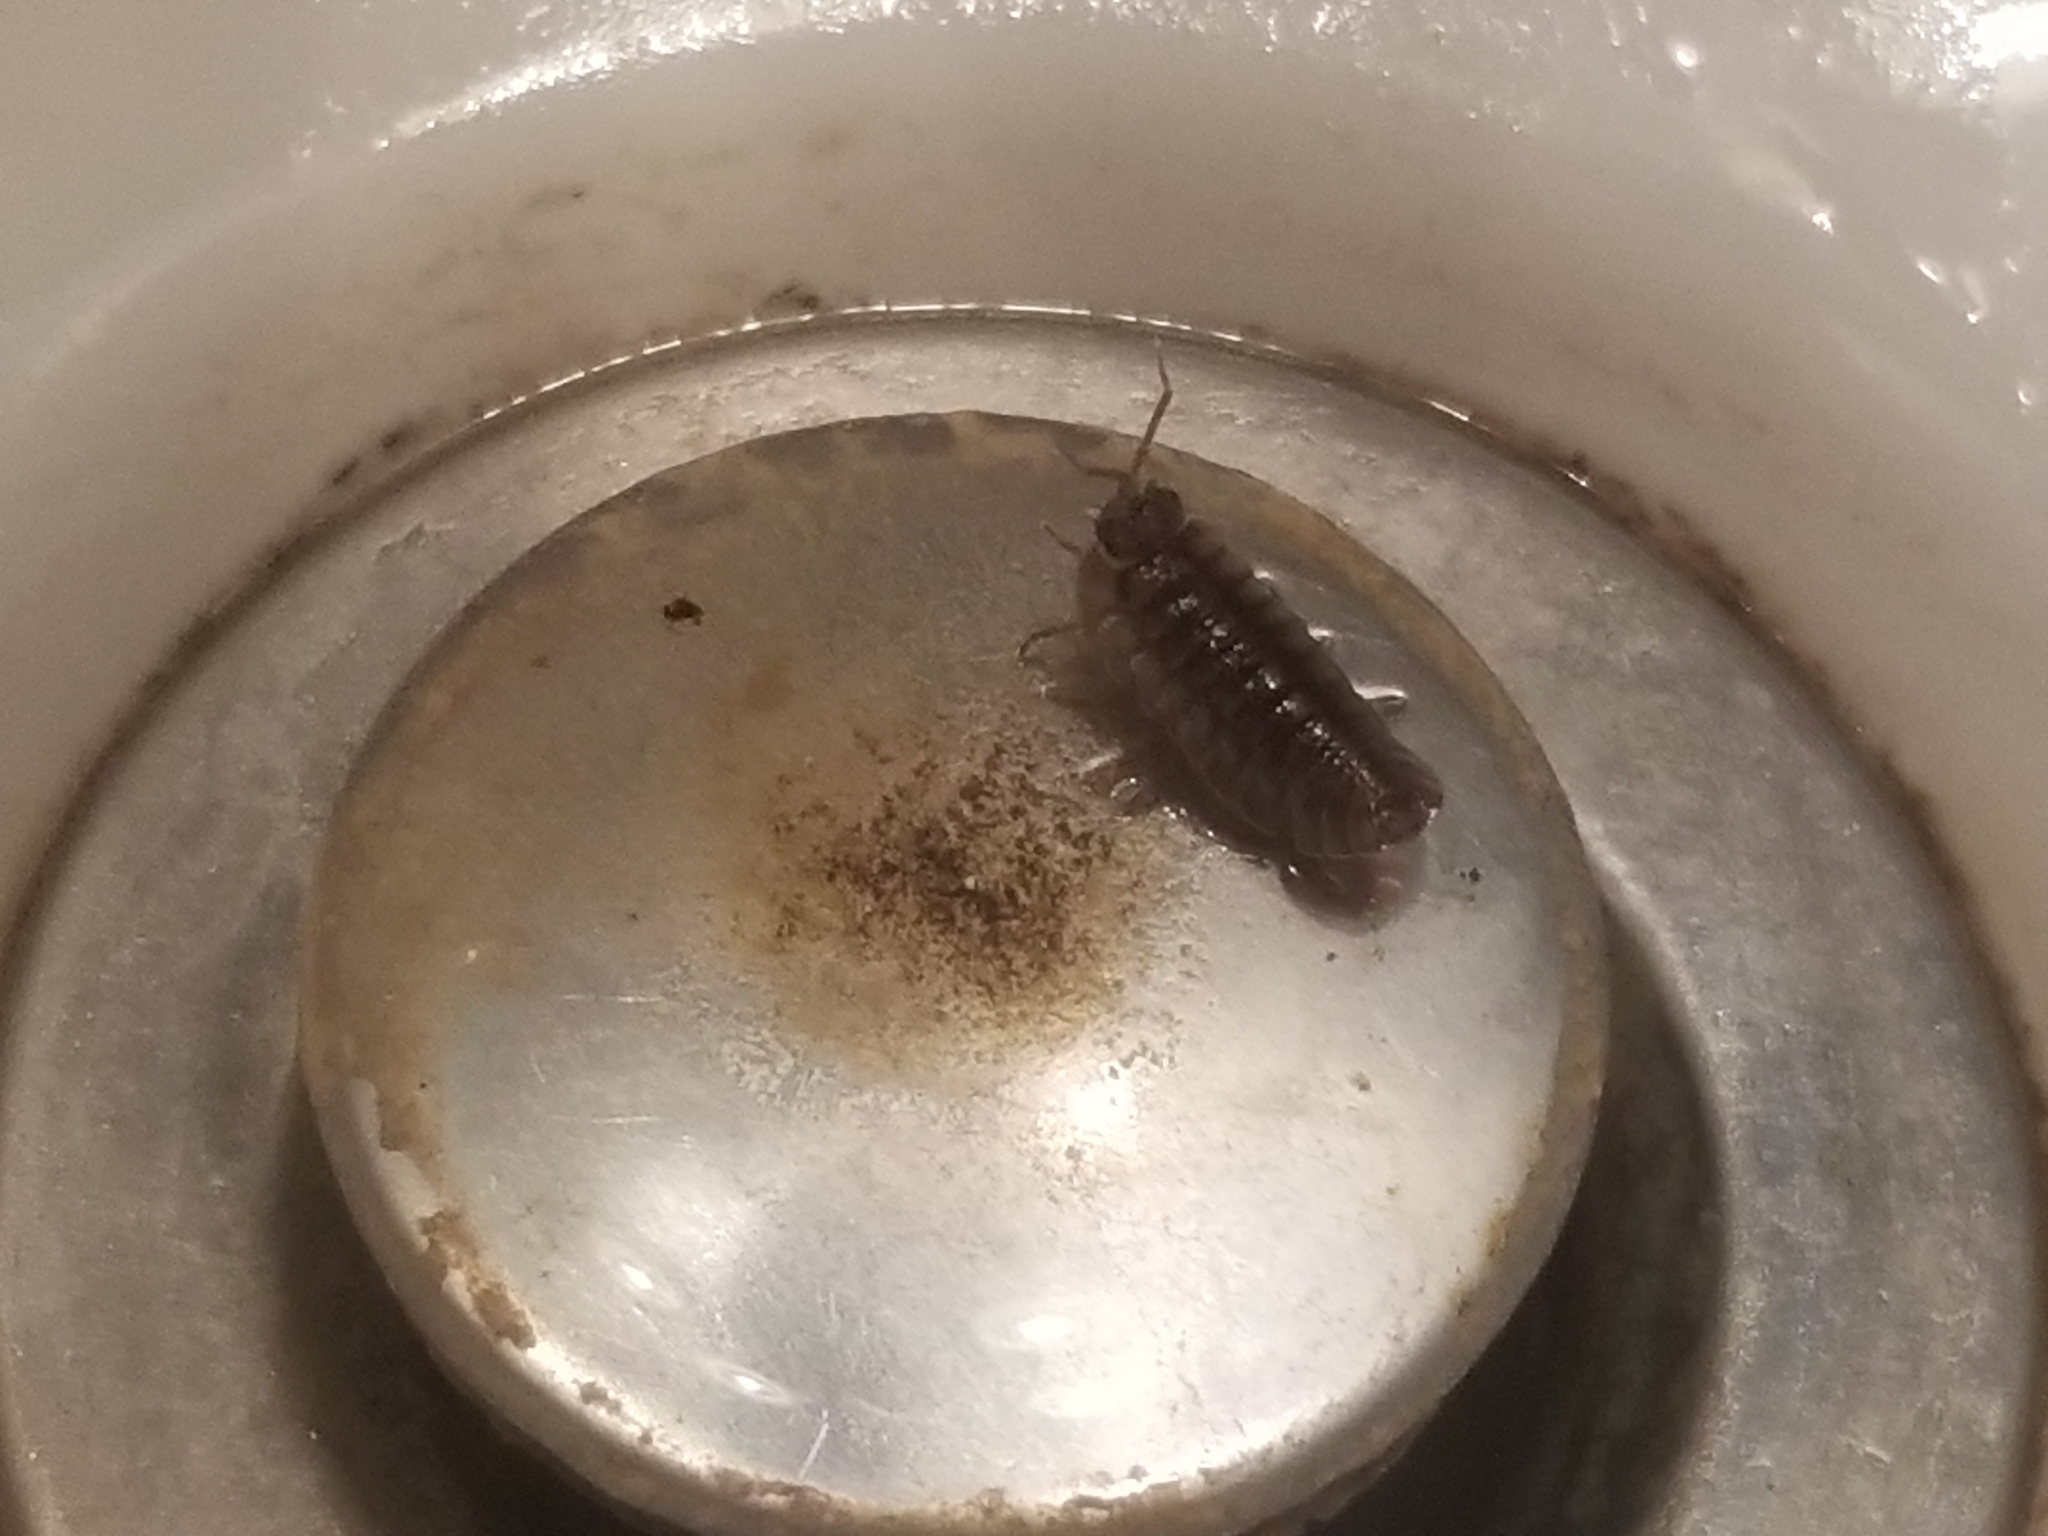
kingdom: Animalia
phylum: Arthropoda
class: Malacostraca
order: Isopoda
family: Armadillidiidae
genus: Armadillidium
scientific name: Armadillidium nasatum
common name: Isopod
